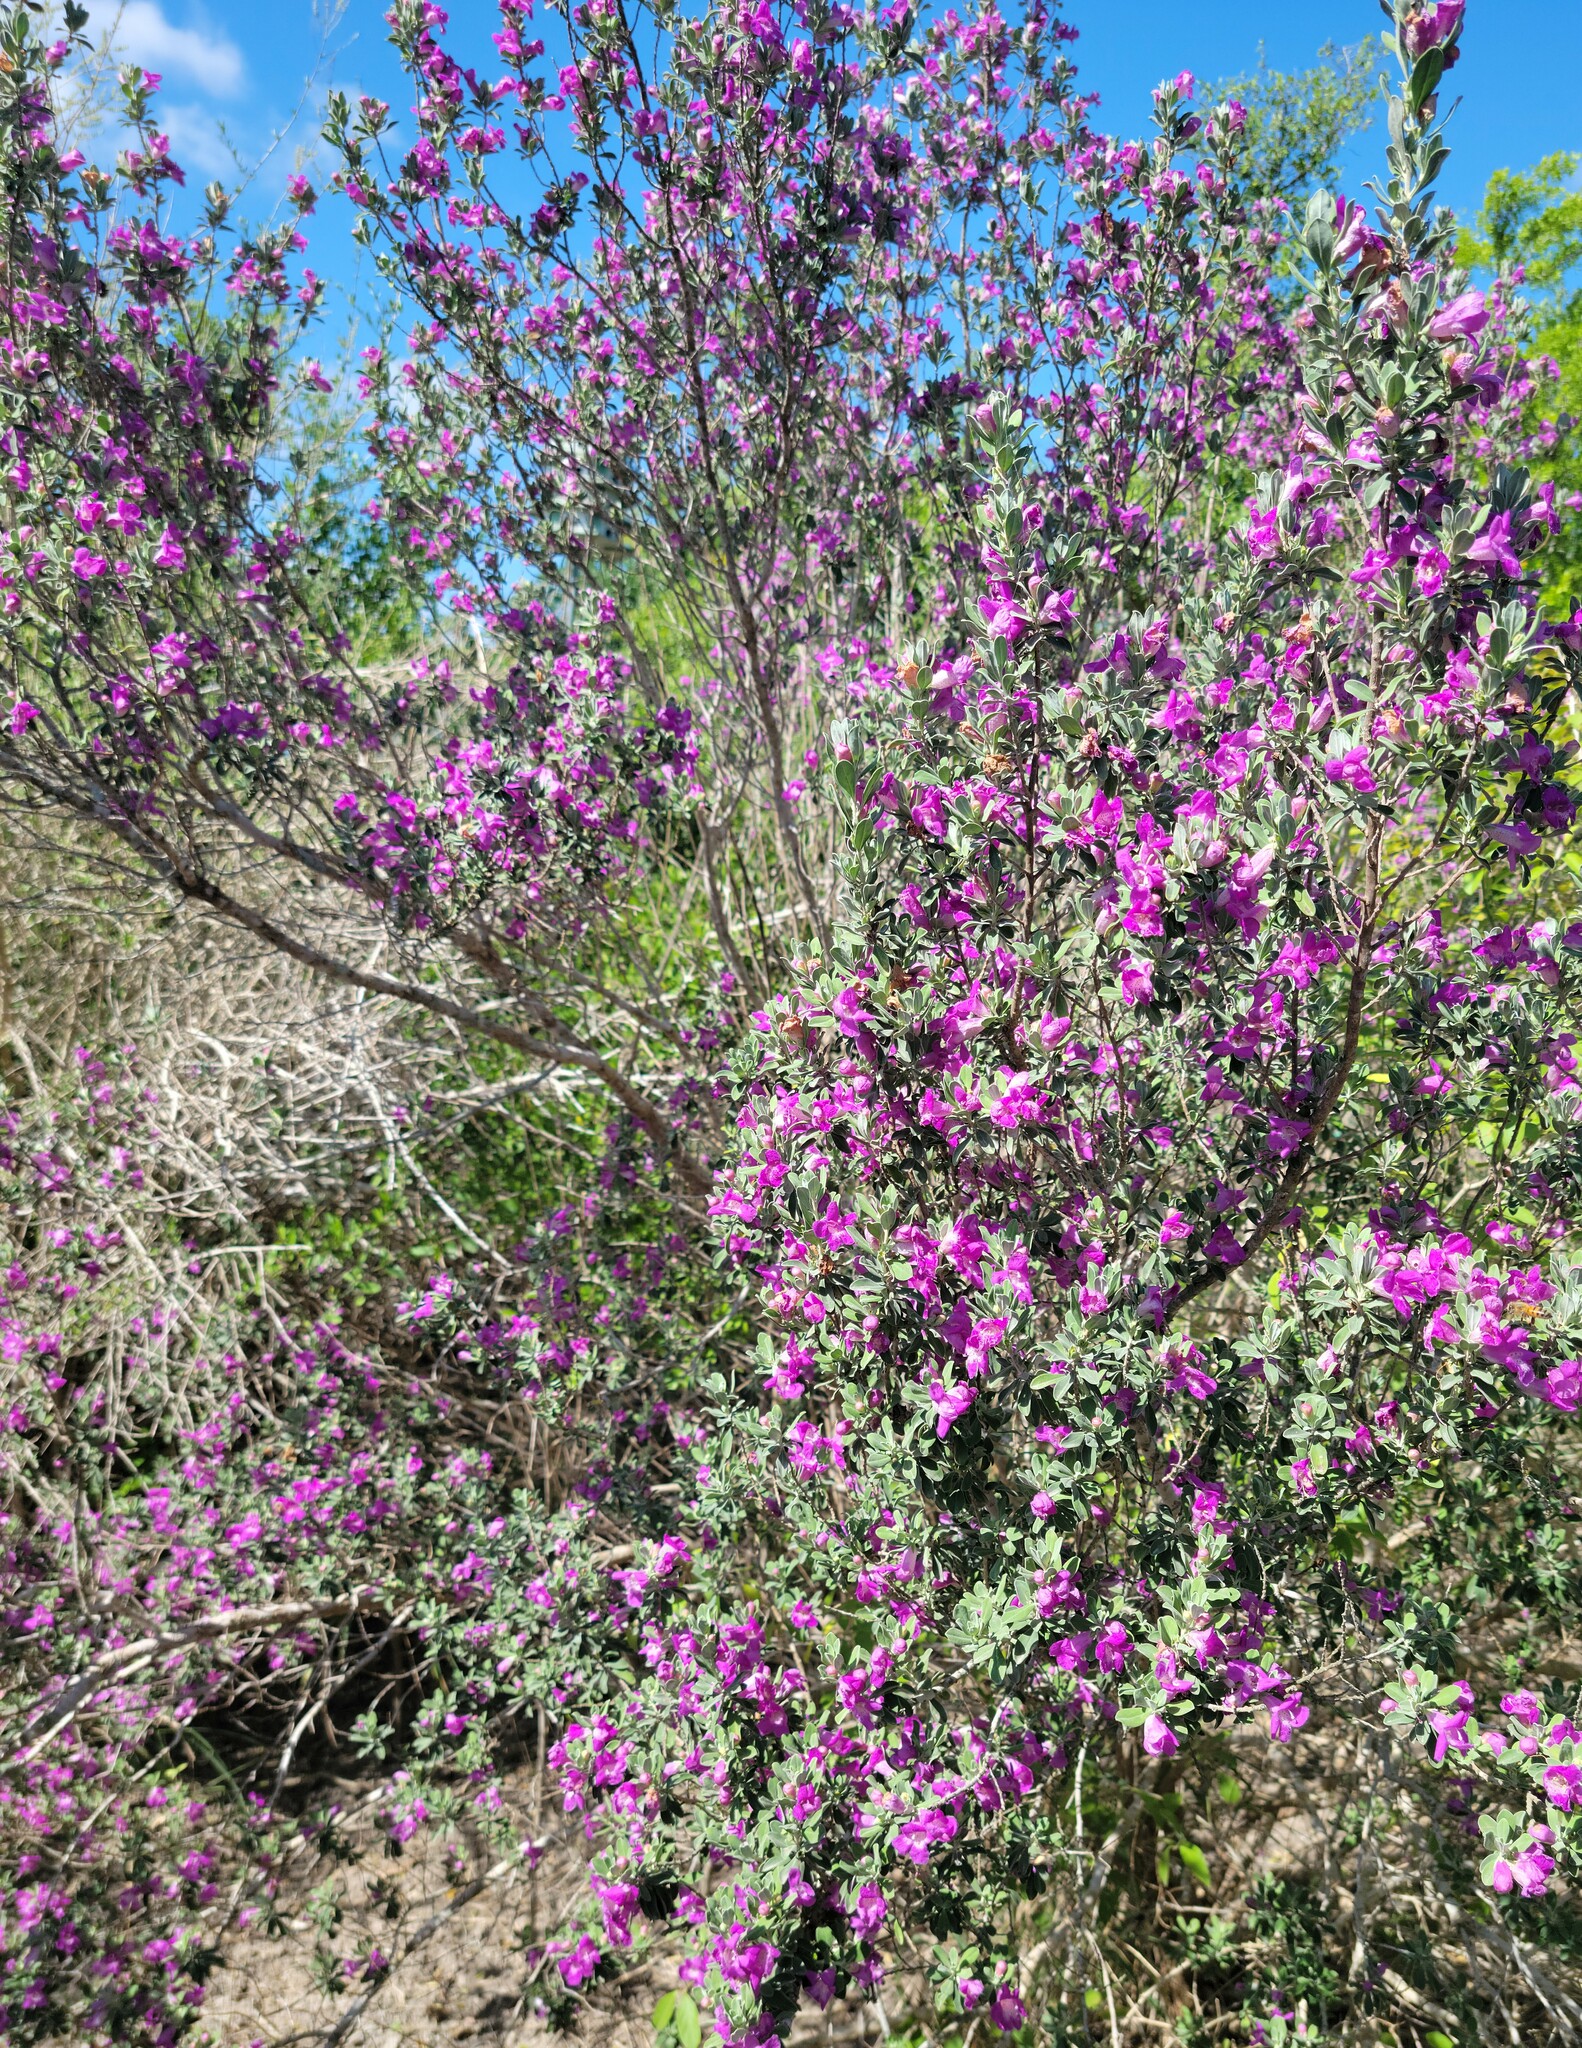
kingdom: Plantae
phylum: Tracheophyta
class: Magnoliopsida
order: Lamiales
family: Scrophulariaceae
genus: Leucophyllum
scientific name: Leucophyllum frutescens
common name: Texas silverleaf
